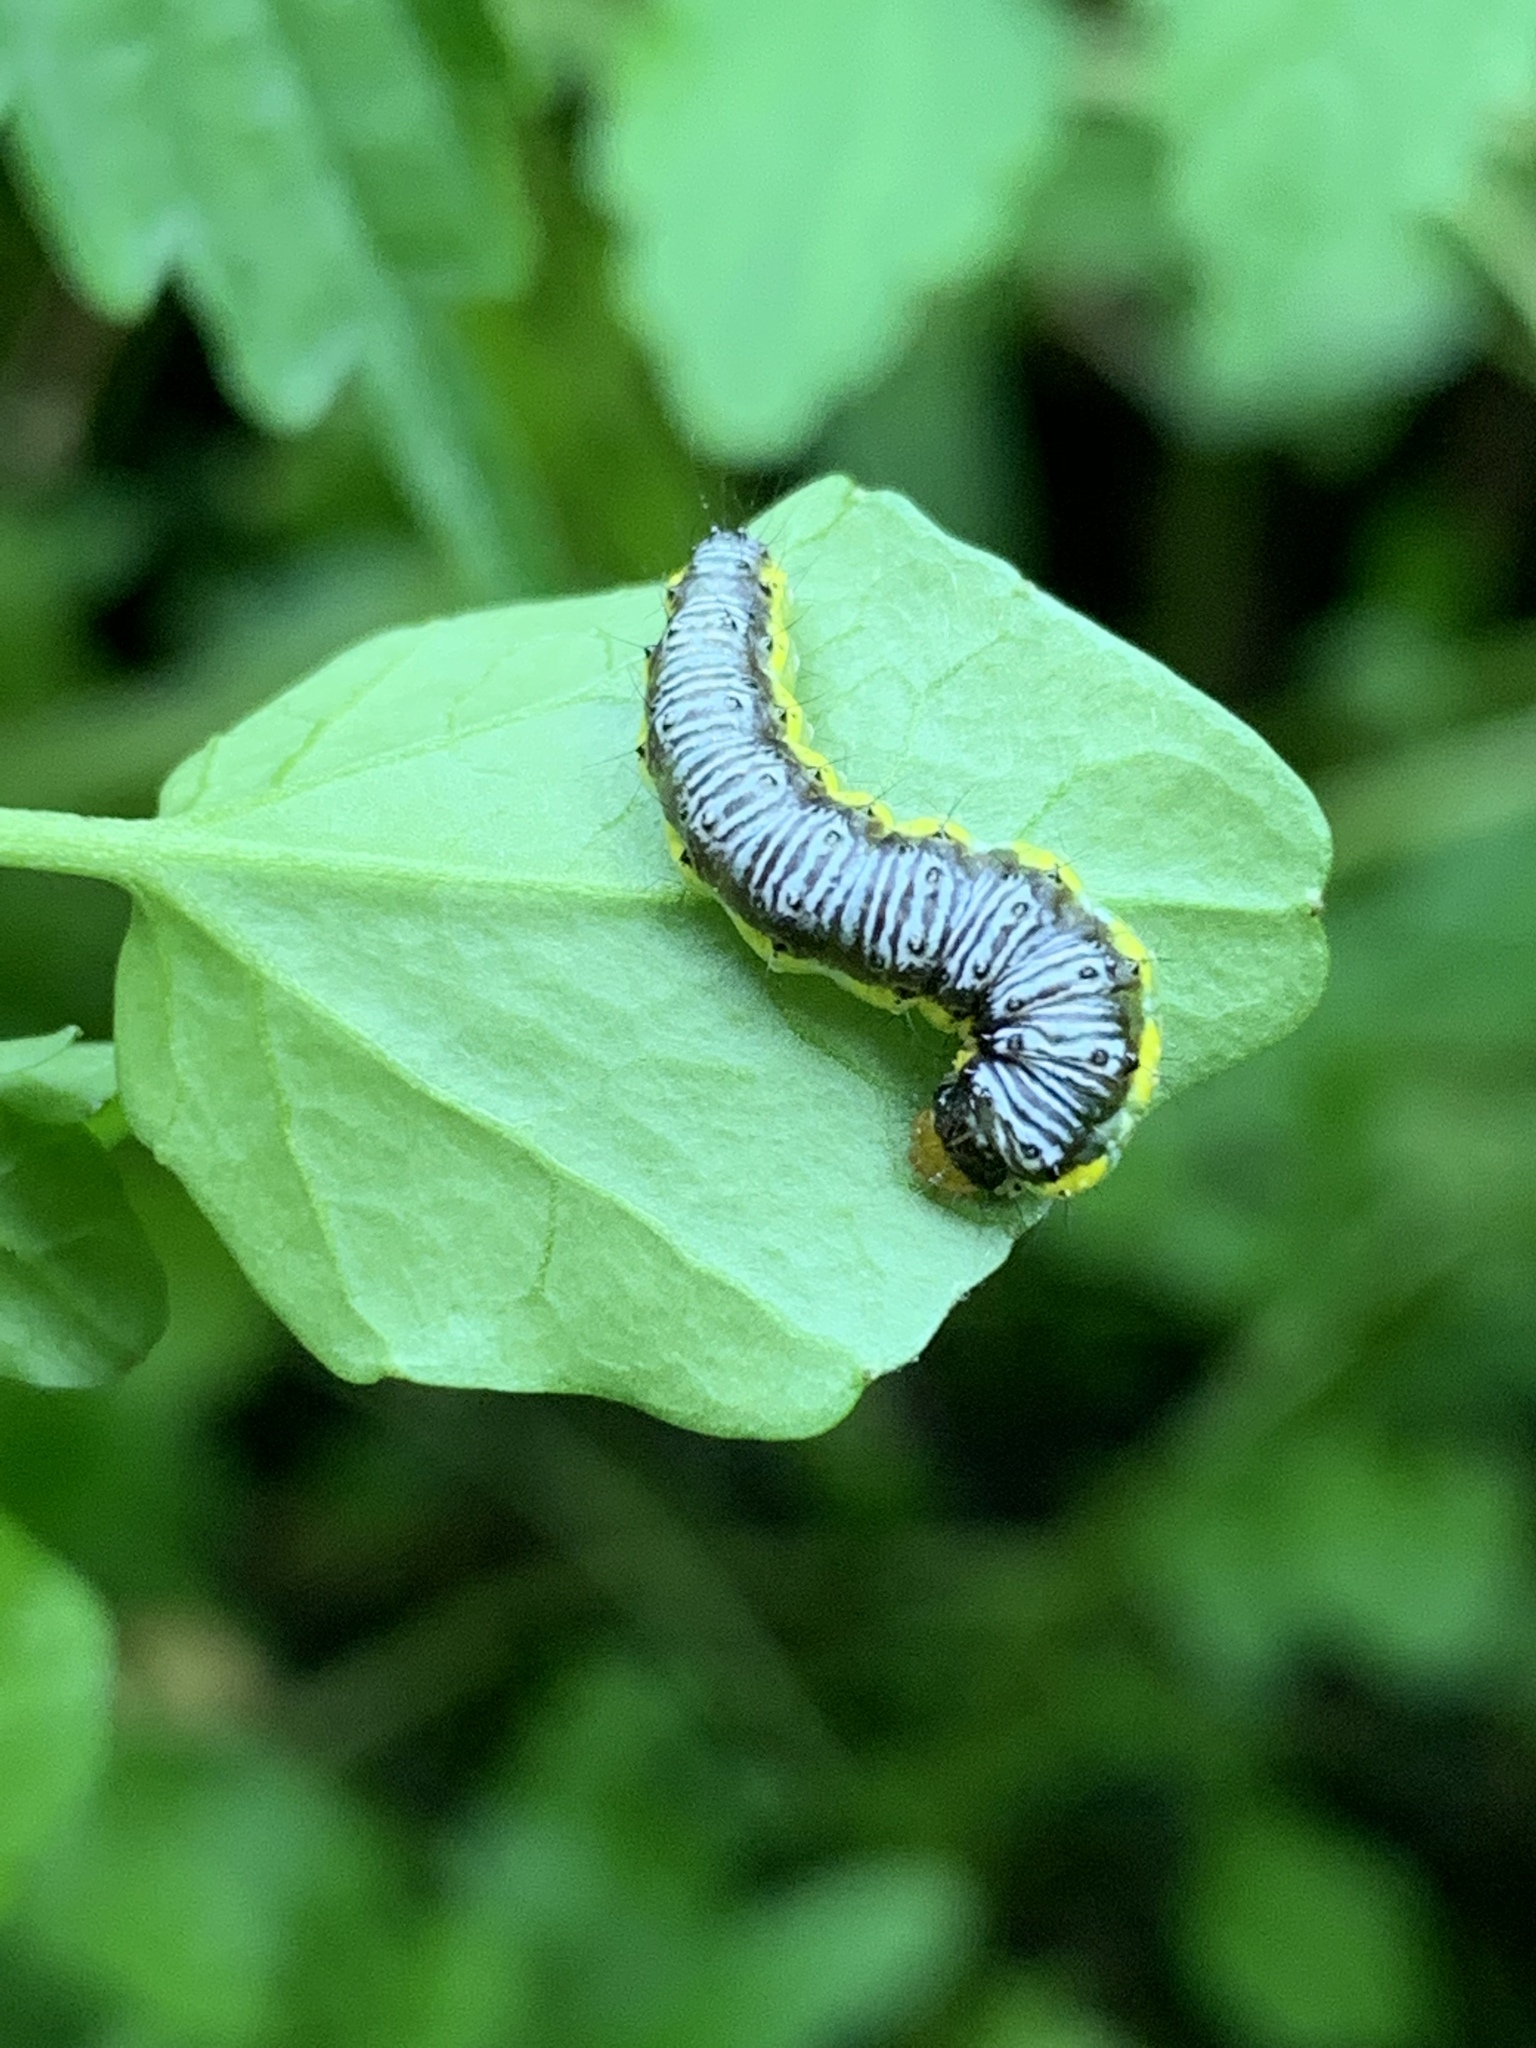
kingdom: Animalia
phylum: Arthropoda
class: Insecta
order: Lepidoptera
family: Crambidae
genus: Evergestis
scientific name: Evergestis rimosalis
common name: Cross-striped cabbageworm moth
